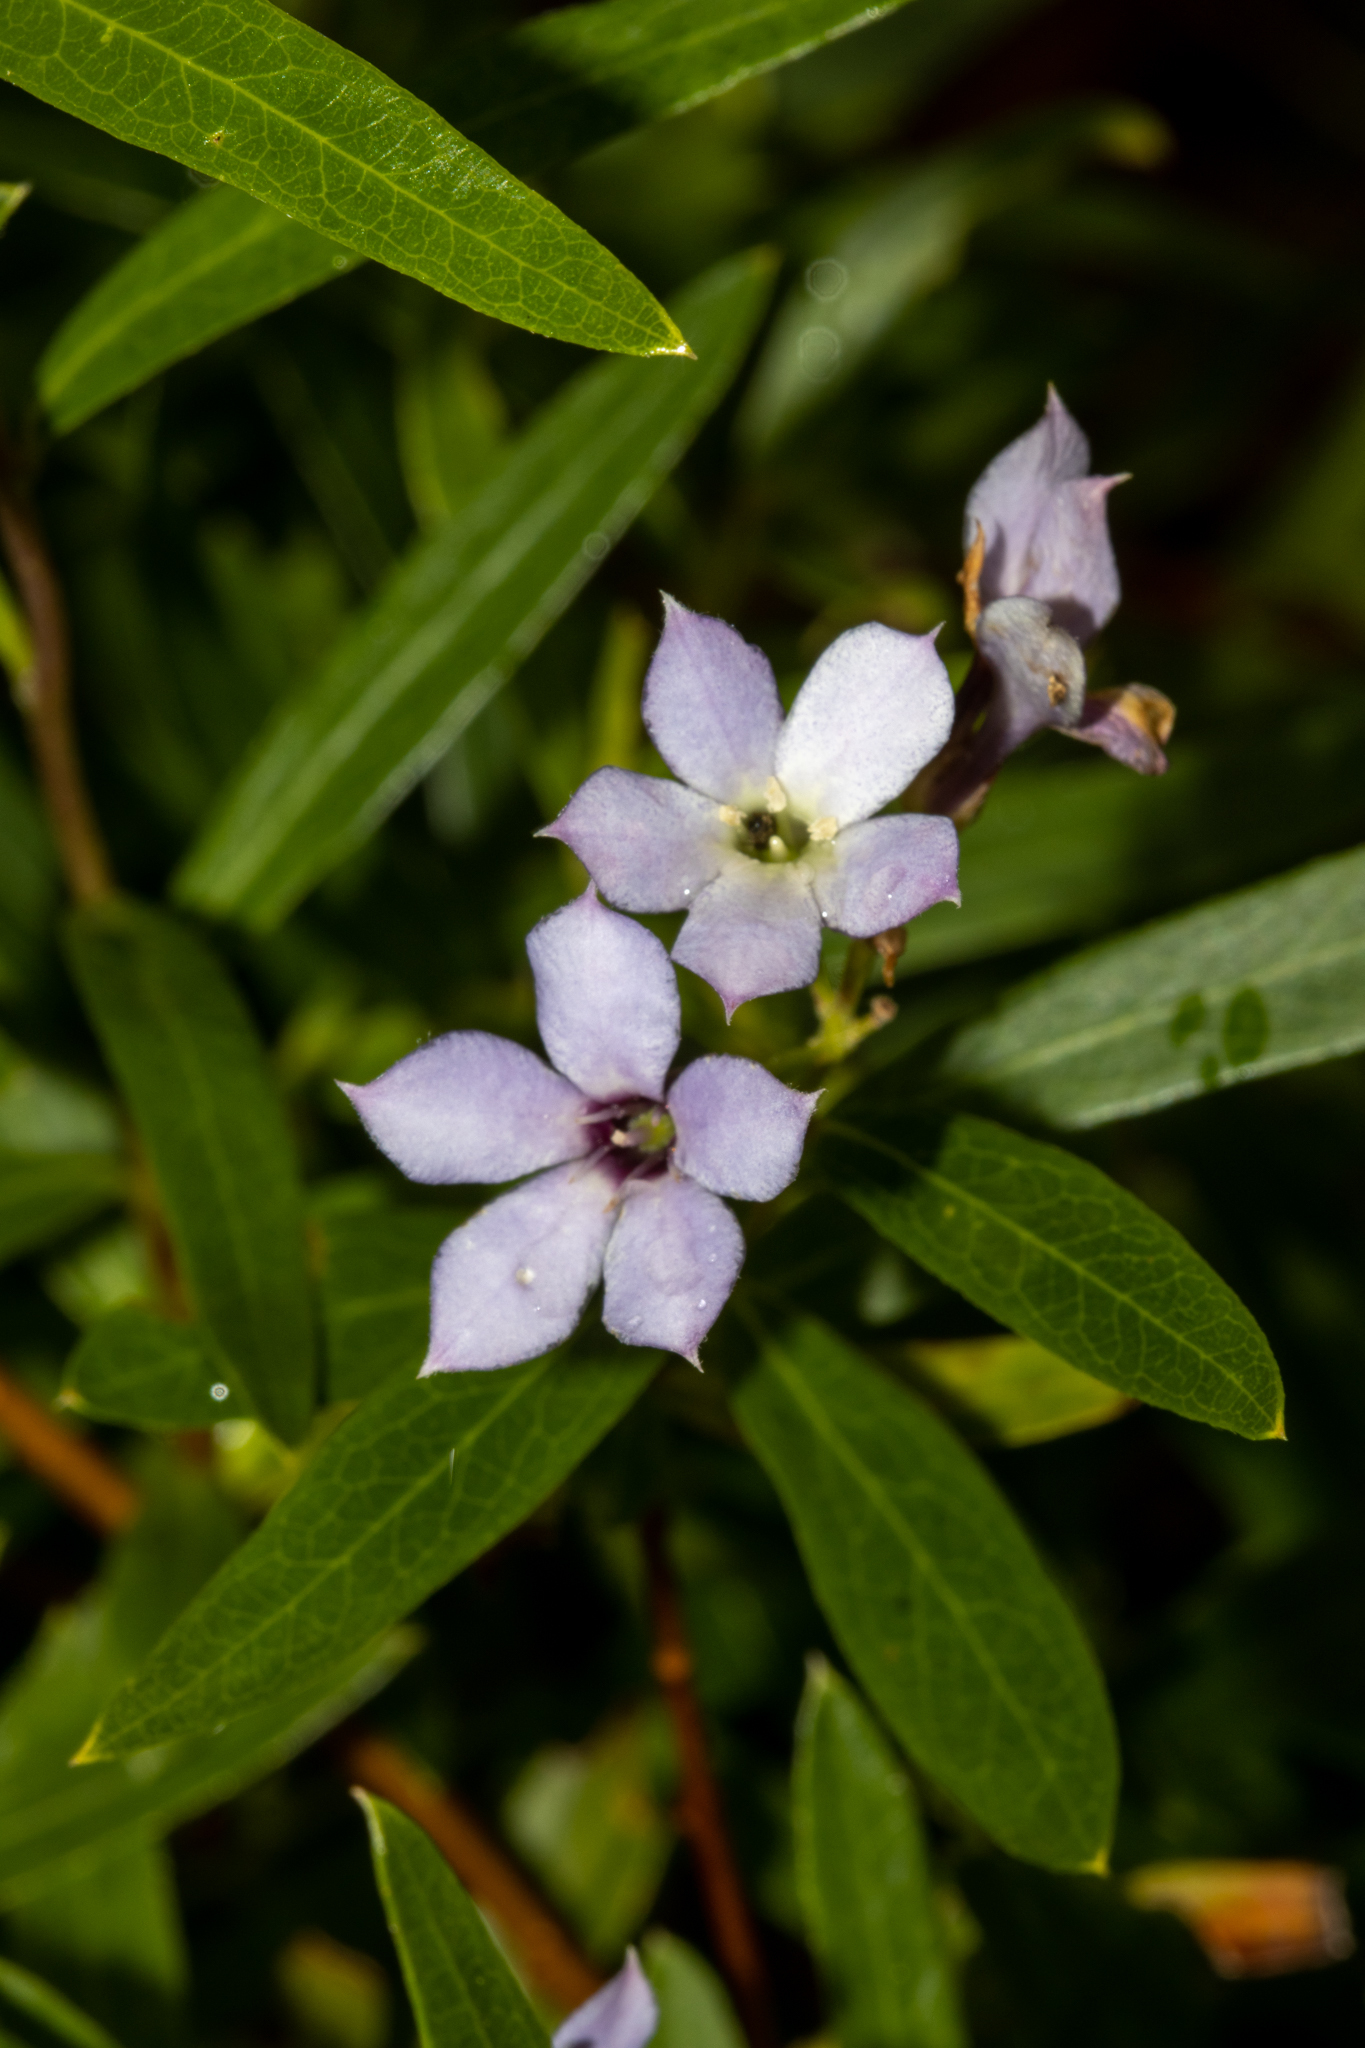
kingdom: Plantae
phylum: Tracheophyta
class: Magnoliopsida
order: Apiales
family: Pittosporaceae
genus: Billardiera
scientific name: Billardiera cymosa
